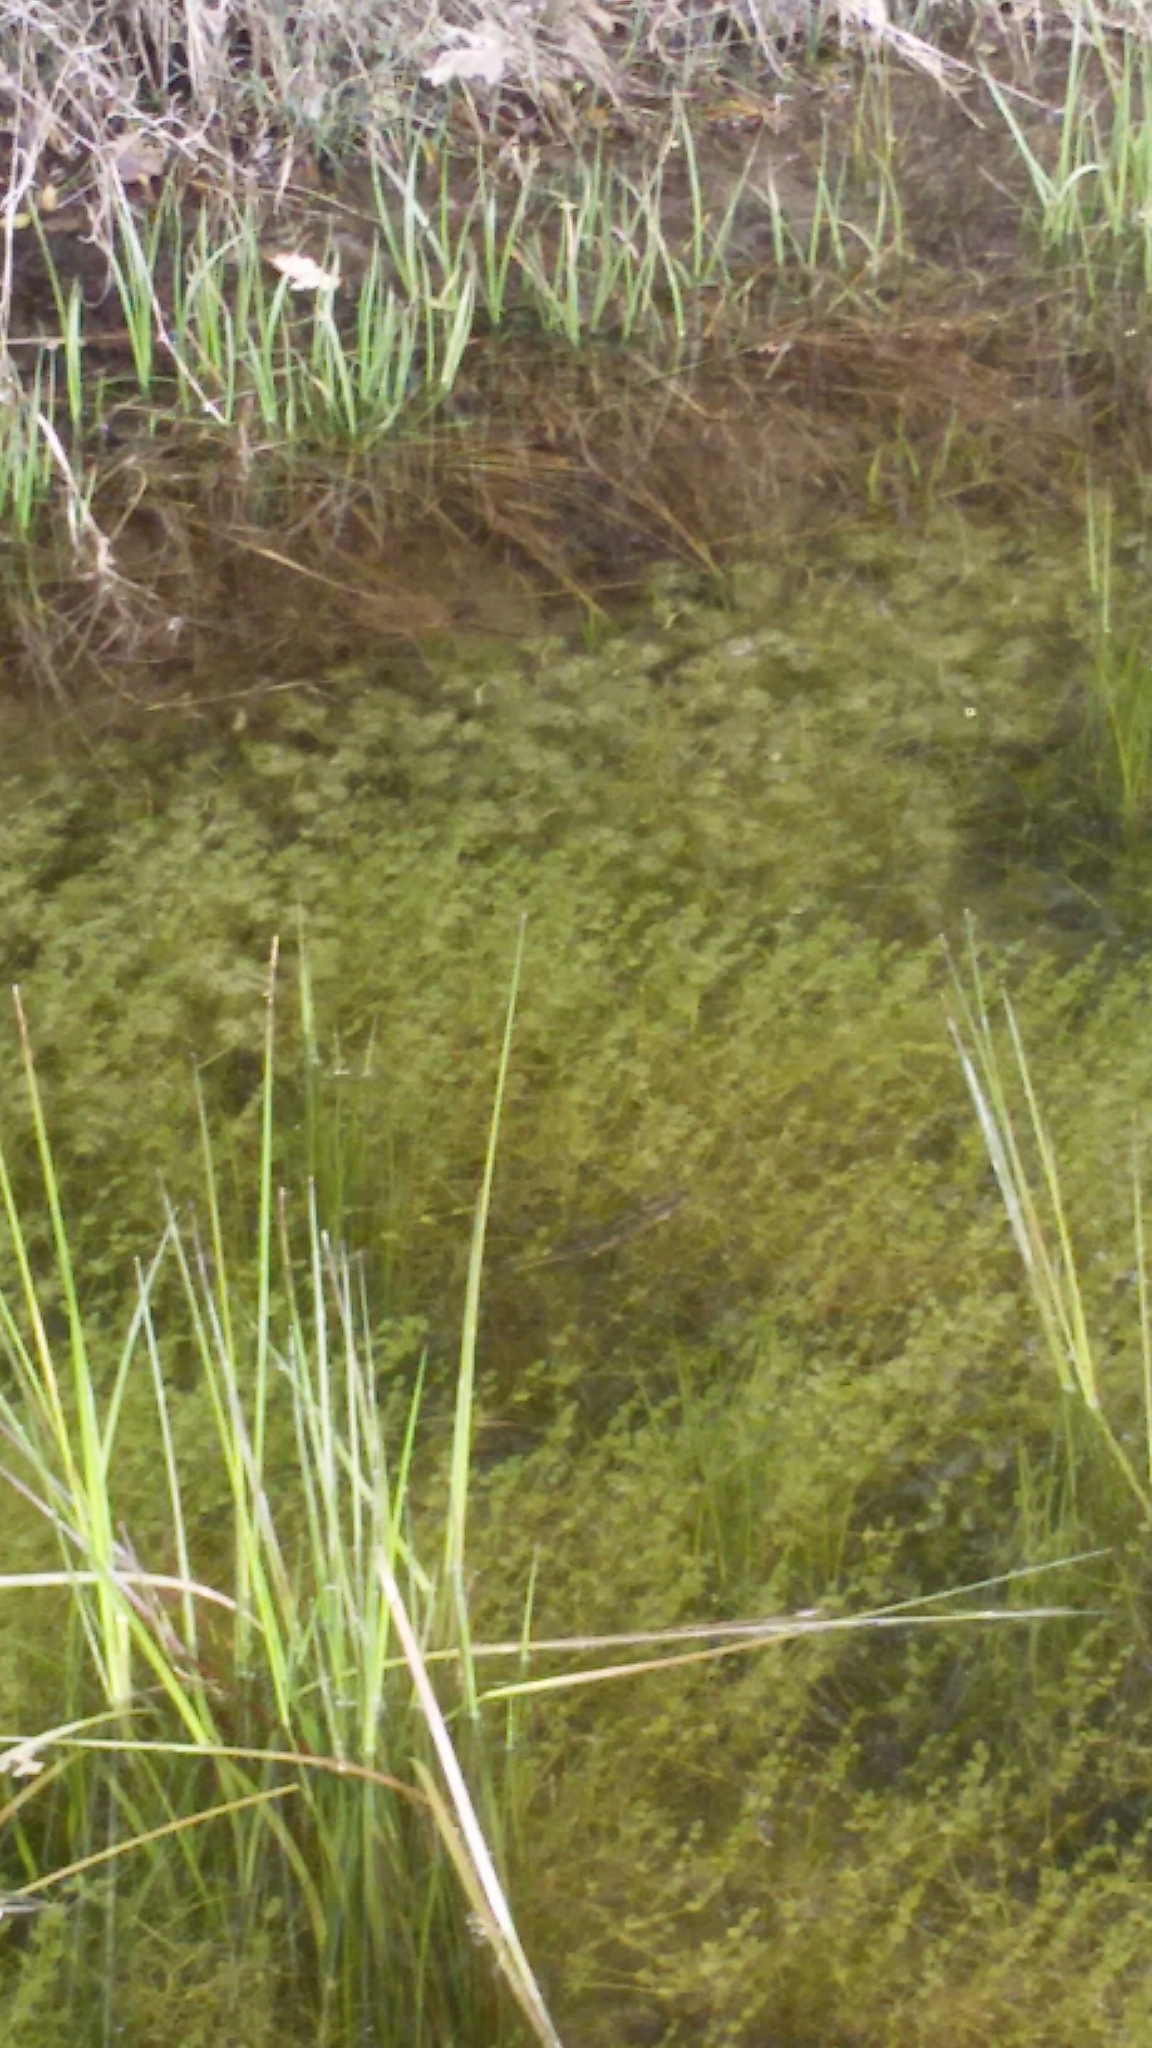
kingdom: Animalia
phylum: Chordata
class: Amphibia
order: Caudata
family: Salamandridae
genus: Triturus
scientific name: Triturus carnifex
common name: Italian crested newt
